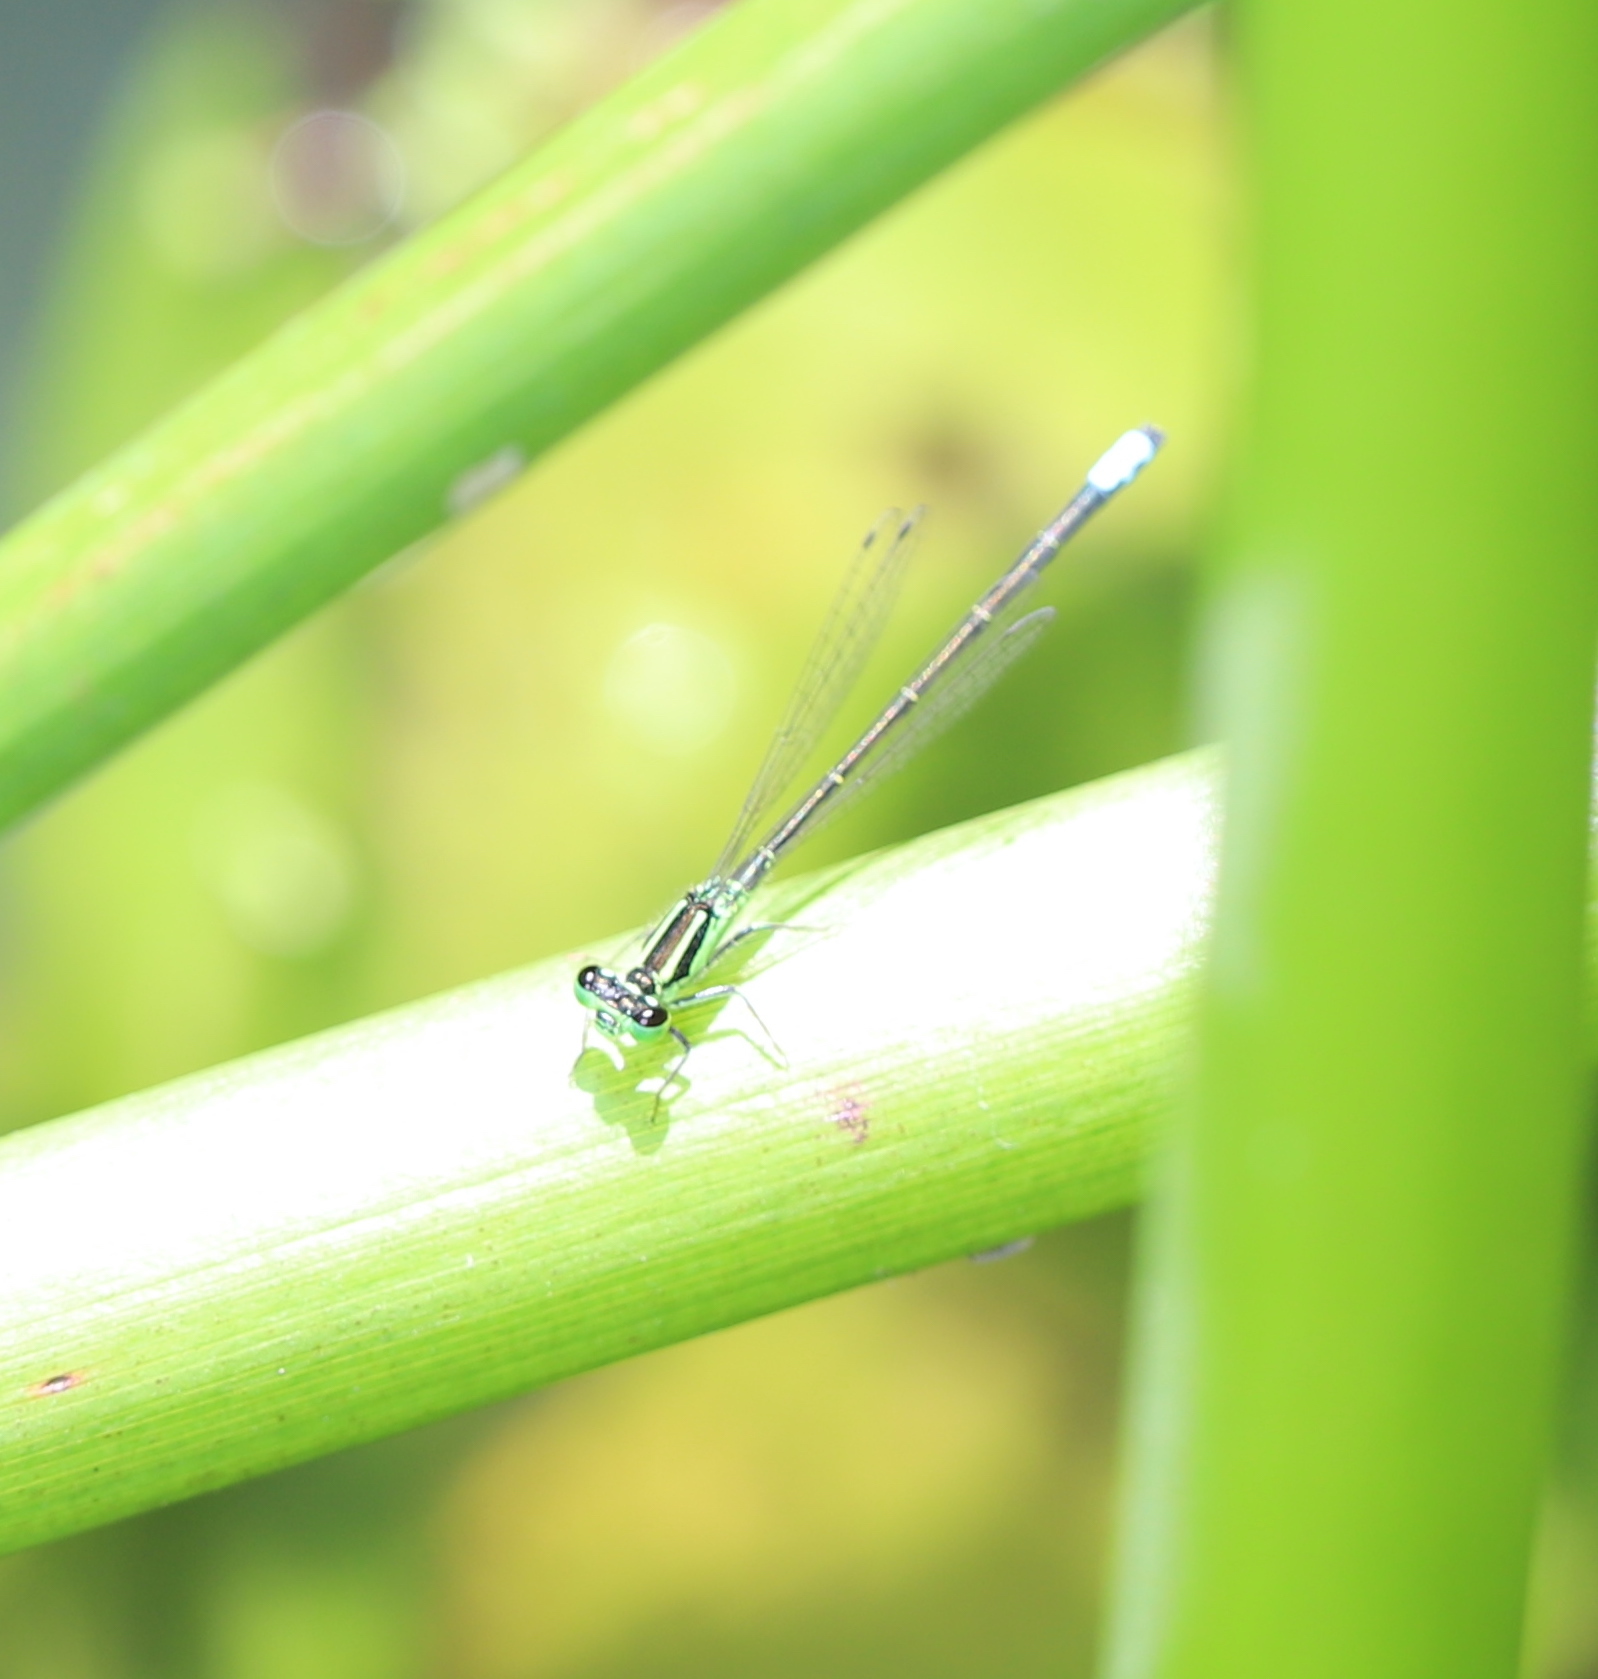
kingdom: Animalia
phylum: Arthropoda
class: Insecta
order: Odonata
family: Coenagrionidae
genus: Ischnura
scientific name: Ischnura verticalis
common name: Eastern forktail
